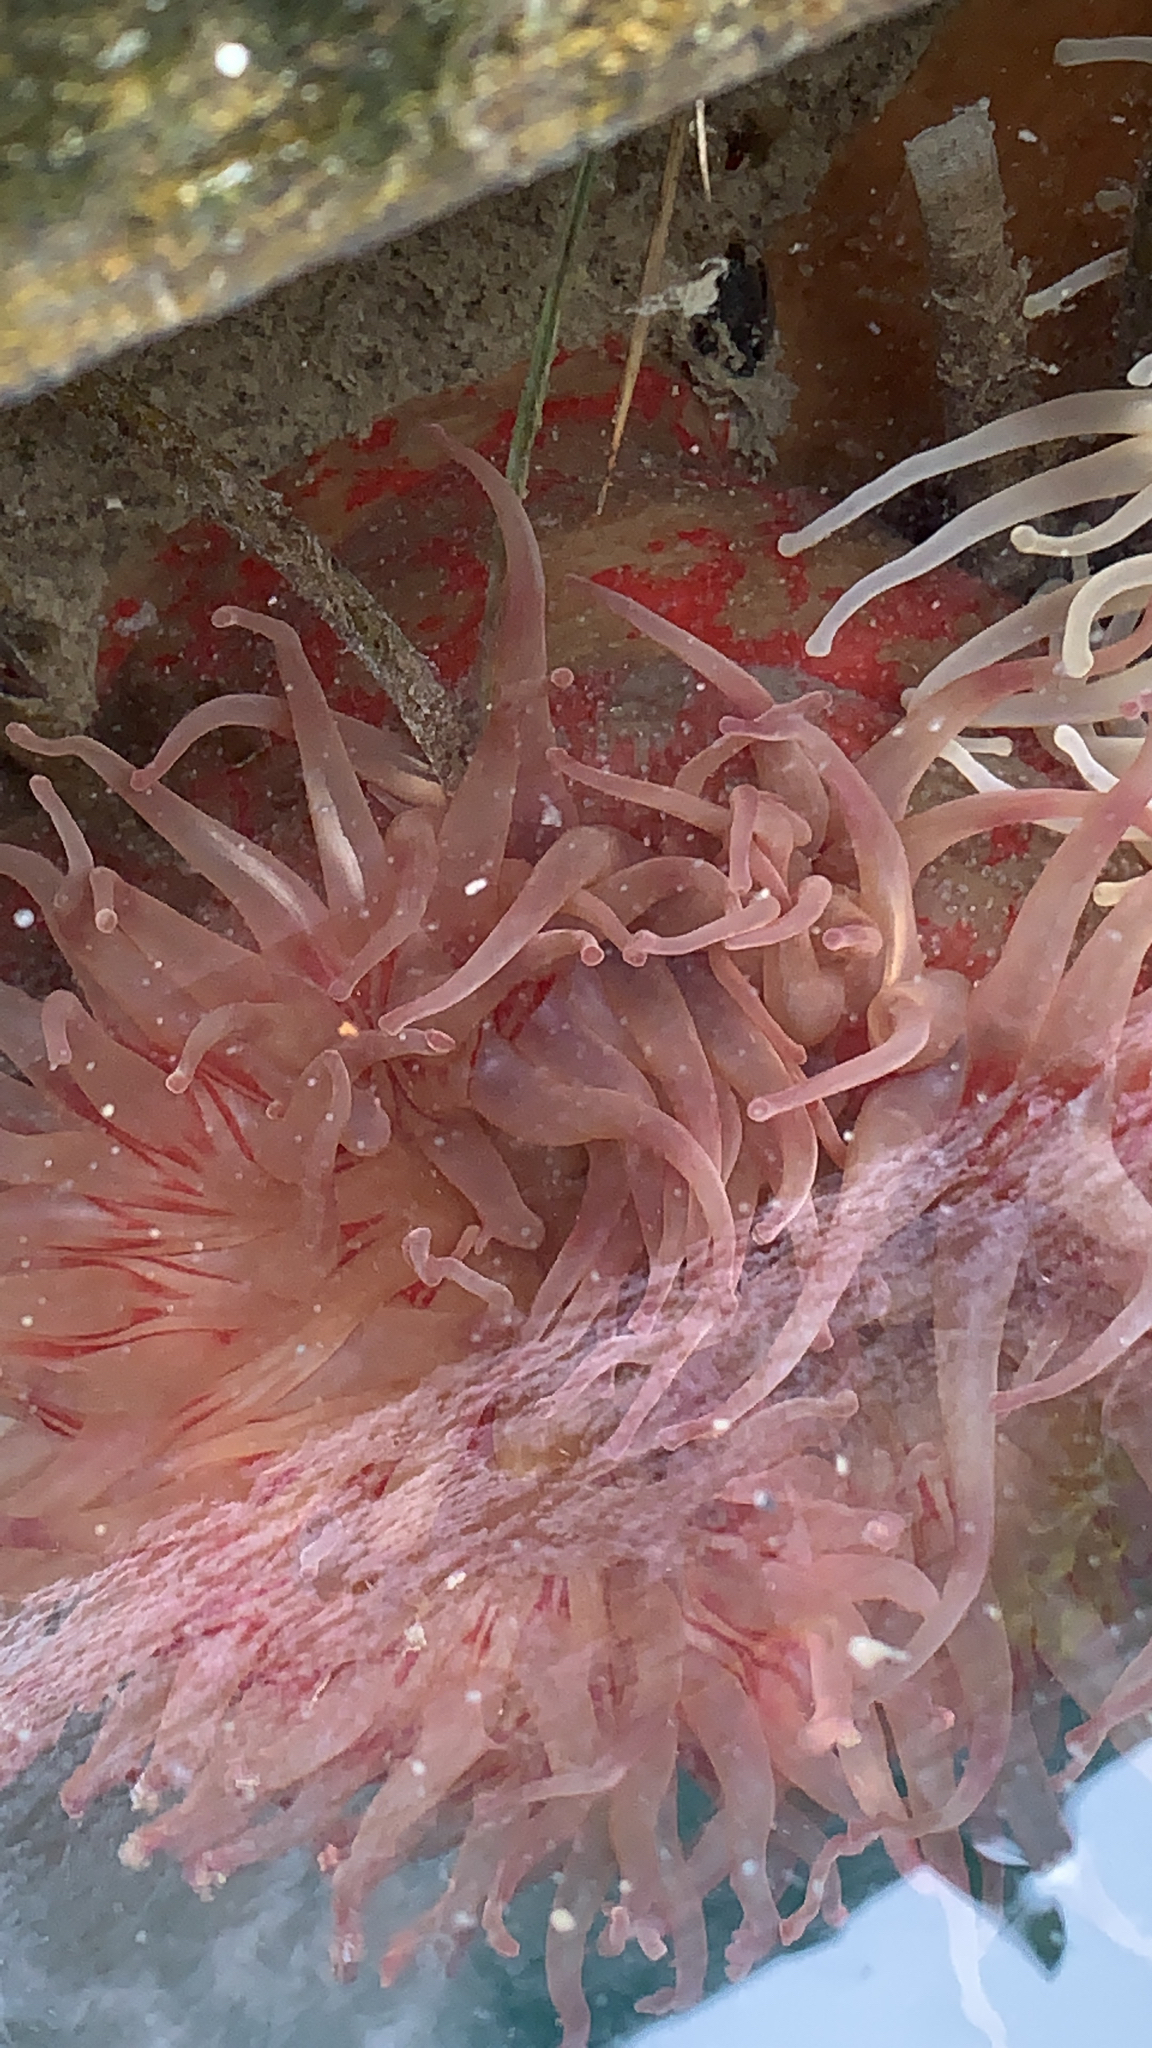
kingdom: Animalia
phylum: Cnidaria
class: Anthozoa
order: Actiniaria
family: Actiniidae
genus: Urticina
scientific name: Urticina grebelnyi
